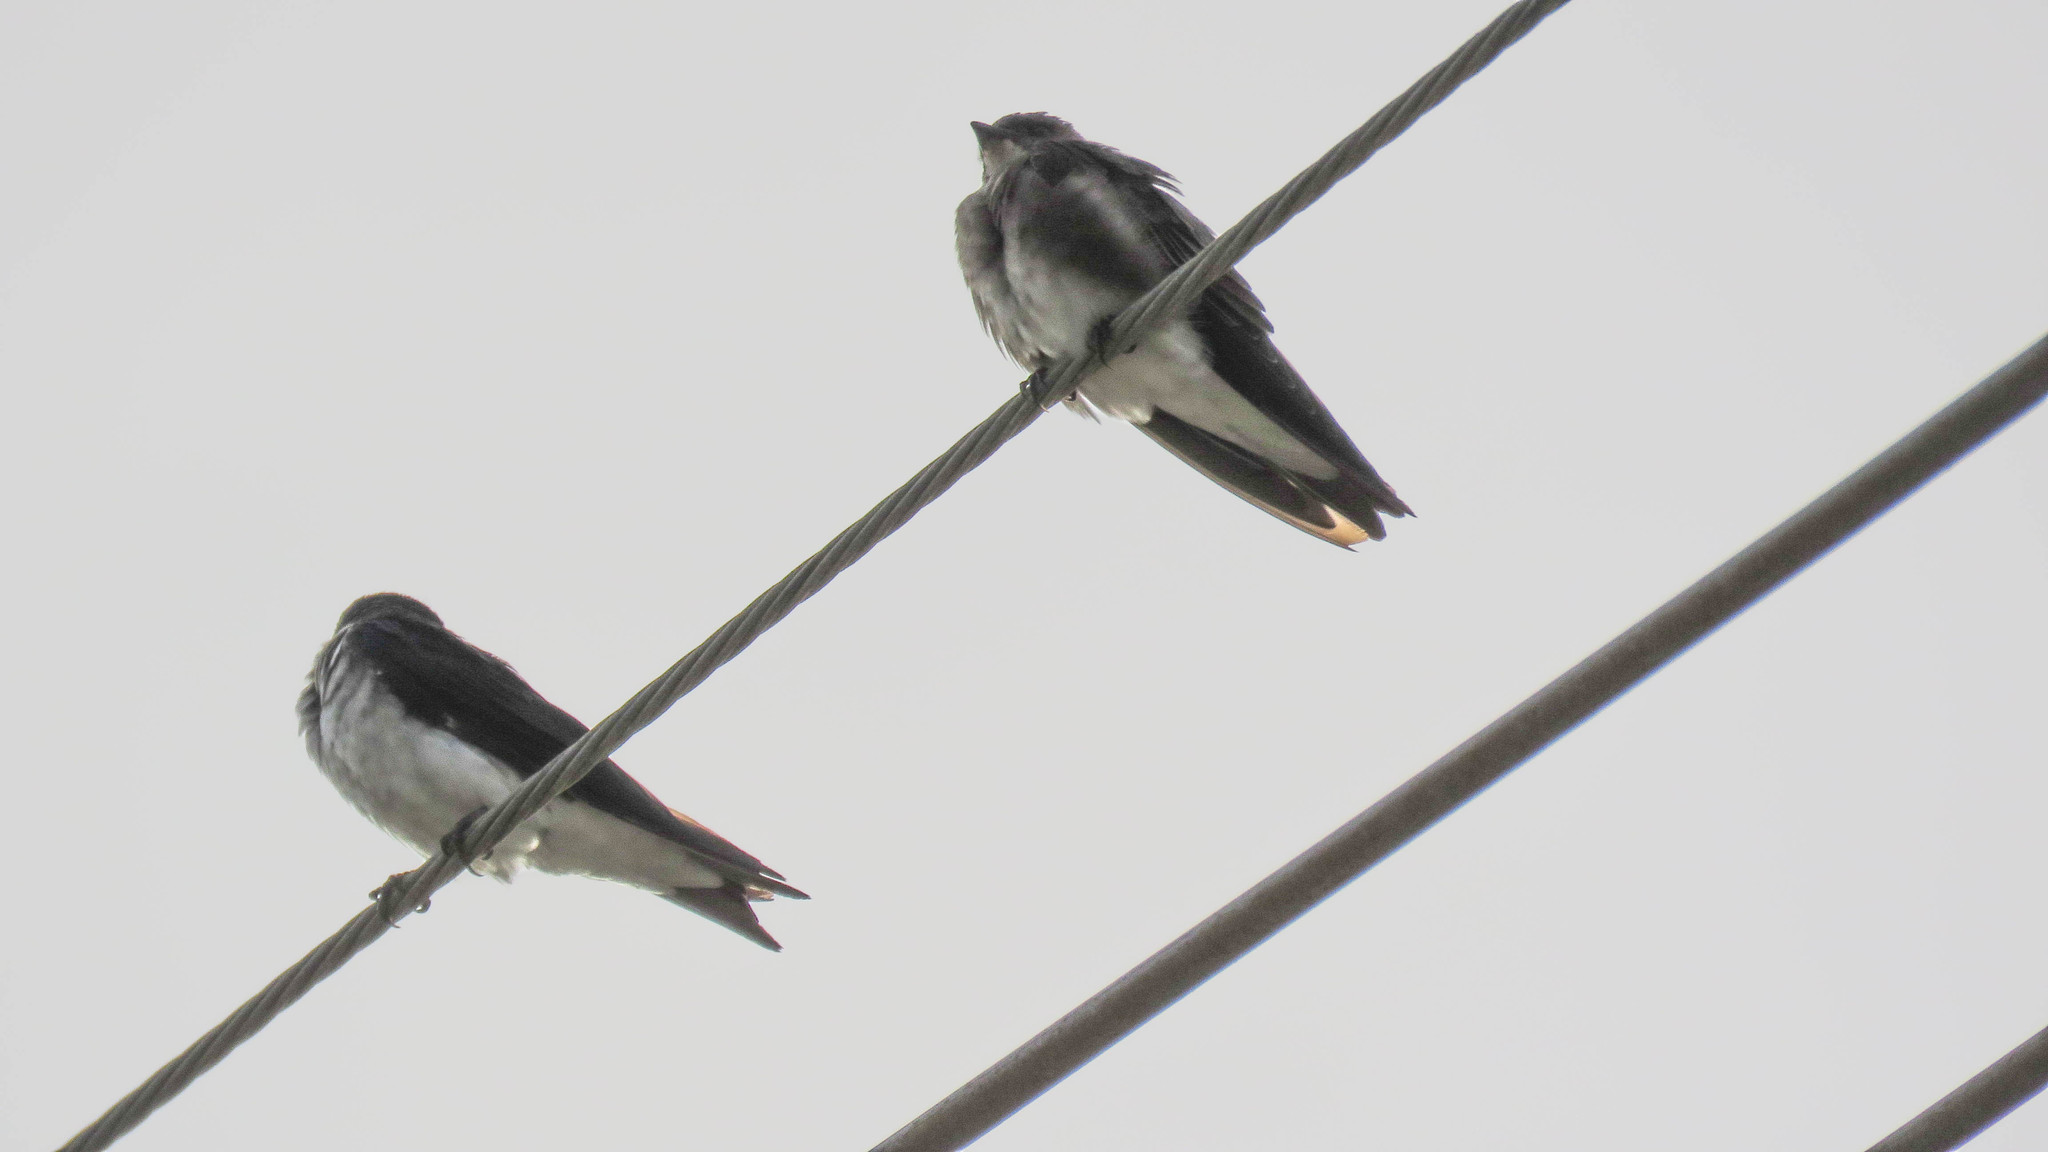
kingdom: Animalia
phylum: Chordata
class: Aves
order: Passeriformes
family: Hirundinidae
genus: Progne
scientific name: Progne tapera
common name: Brown-chested martin
